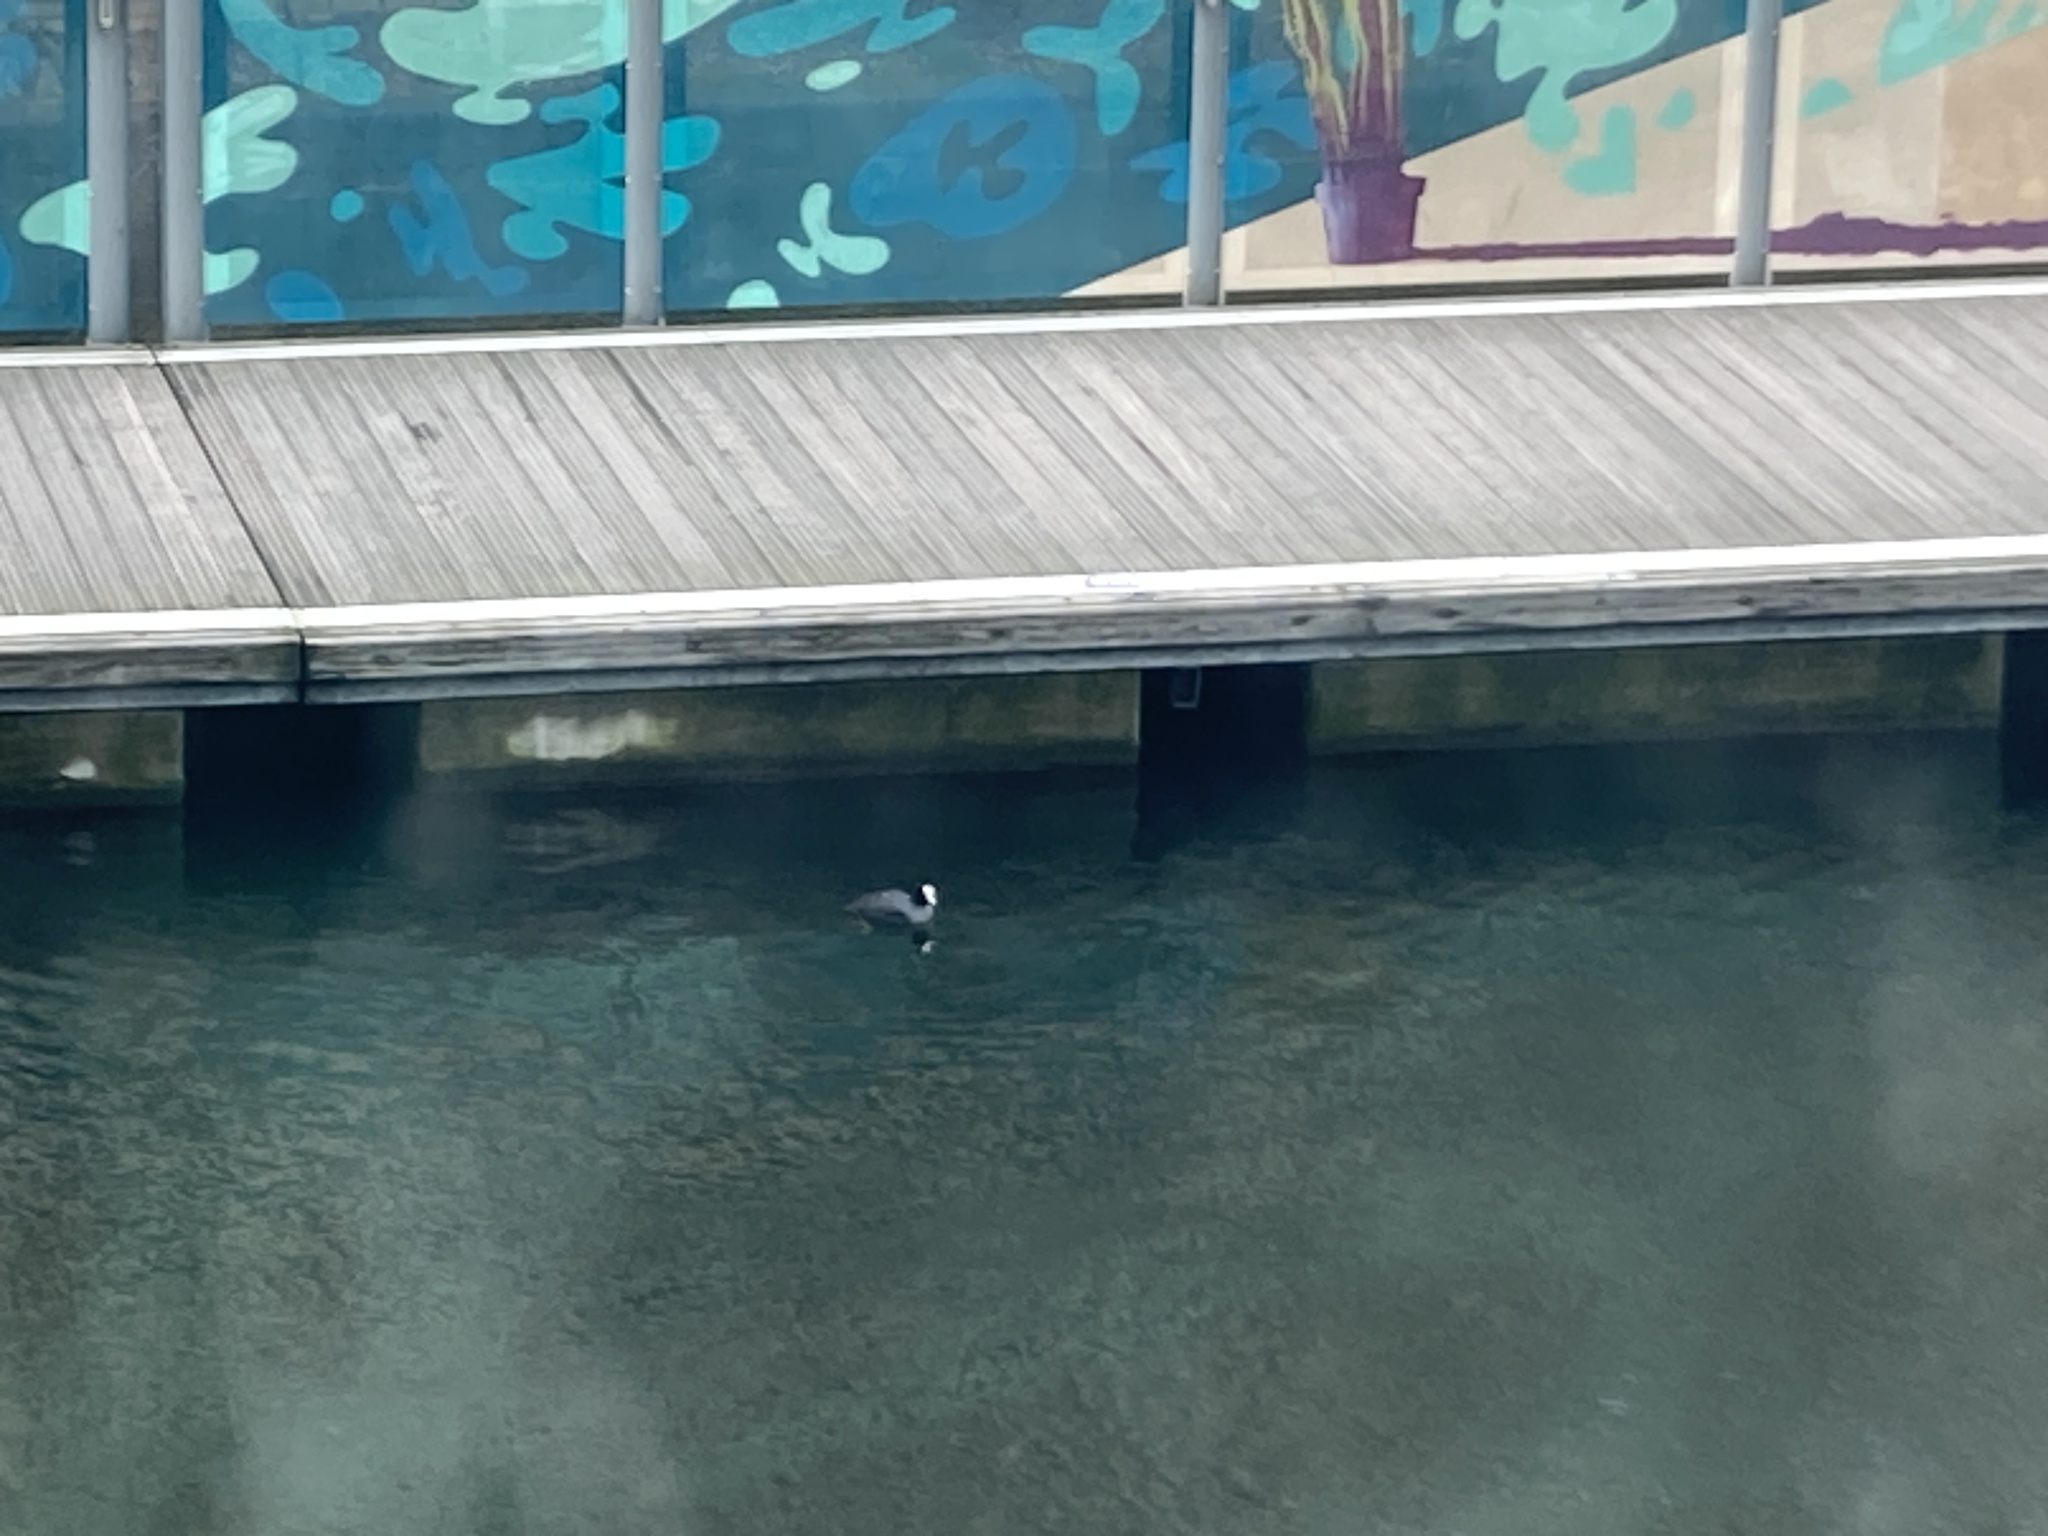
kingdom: Animalia
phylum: Chordata
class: Aves
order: Gruiformes
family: Rallidae
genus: Fulica
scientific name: Fulica atra
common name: Eurasian coot
